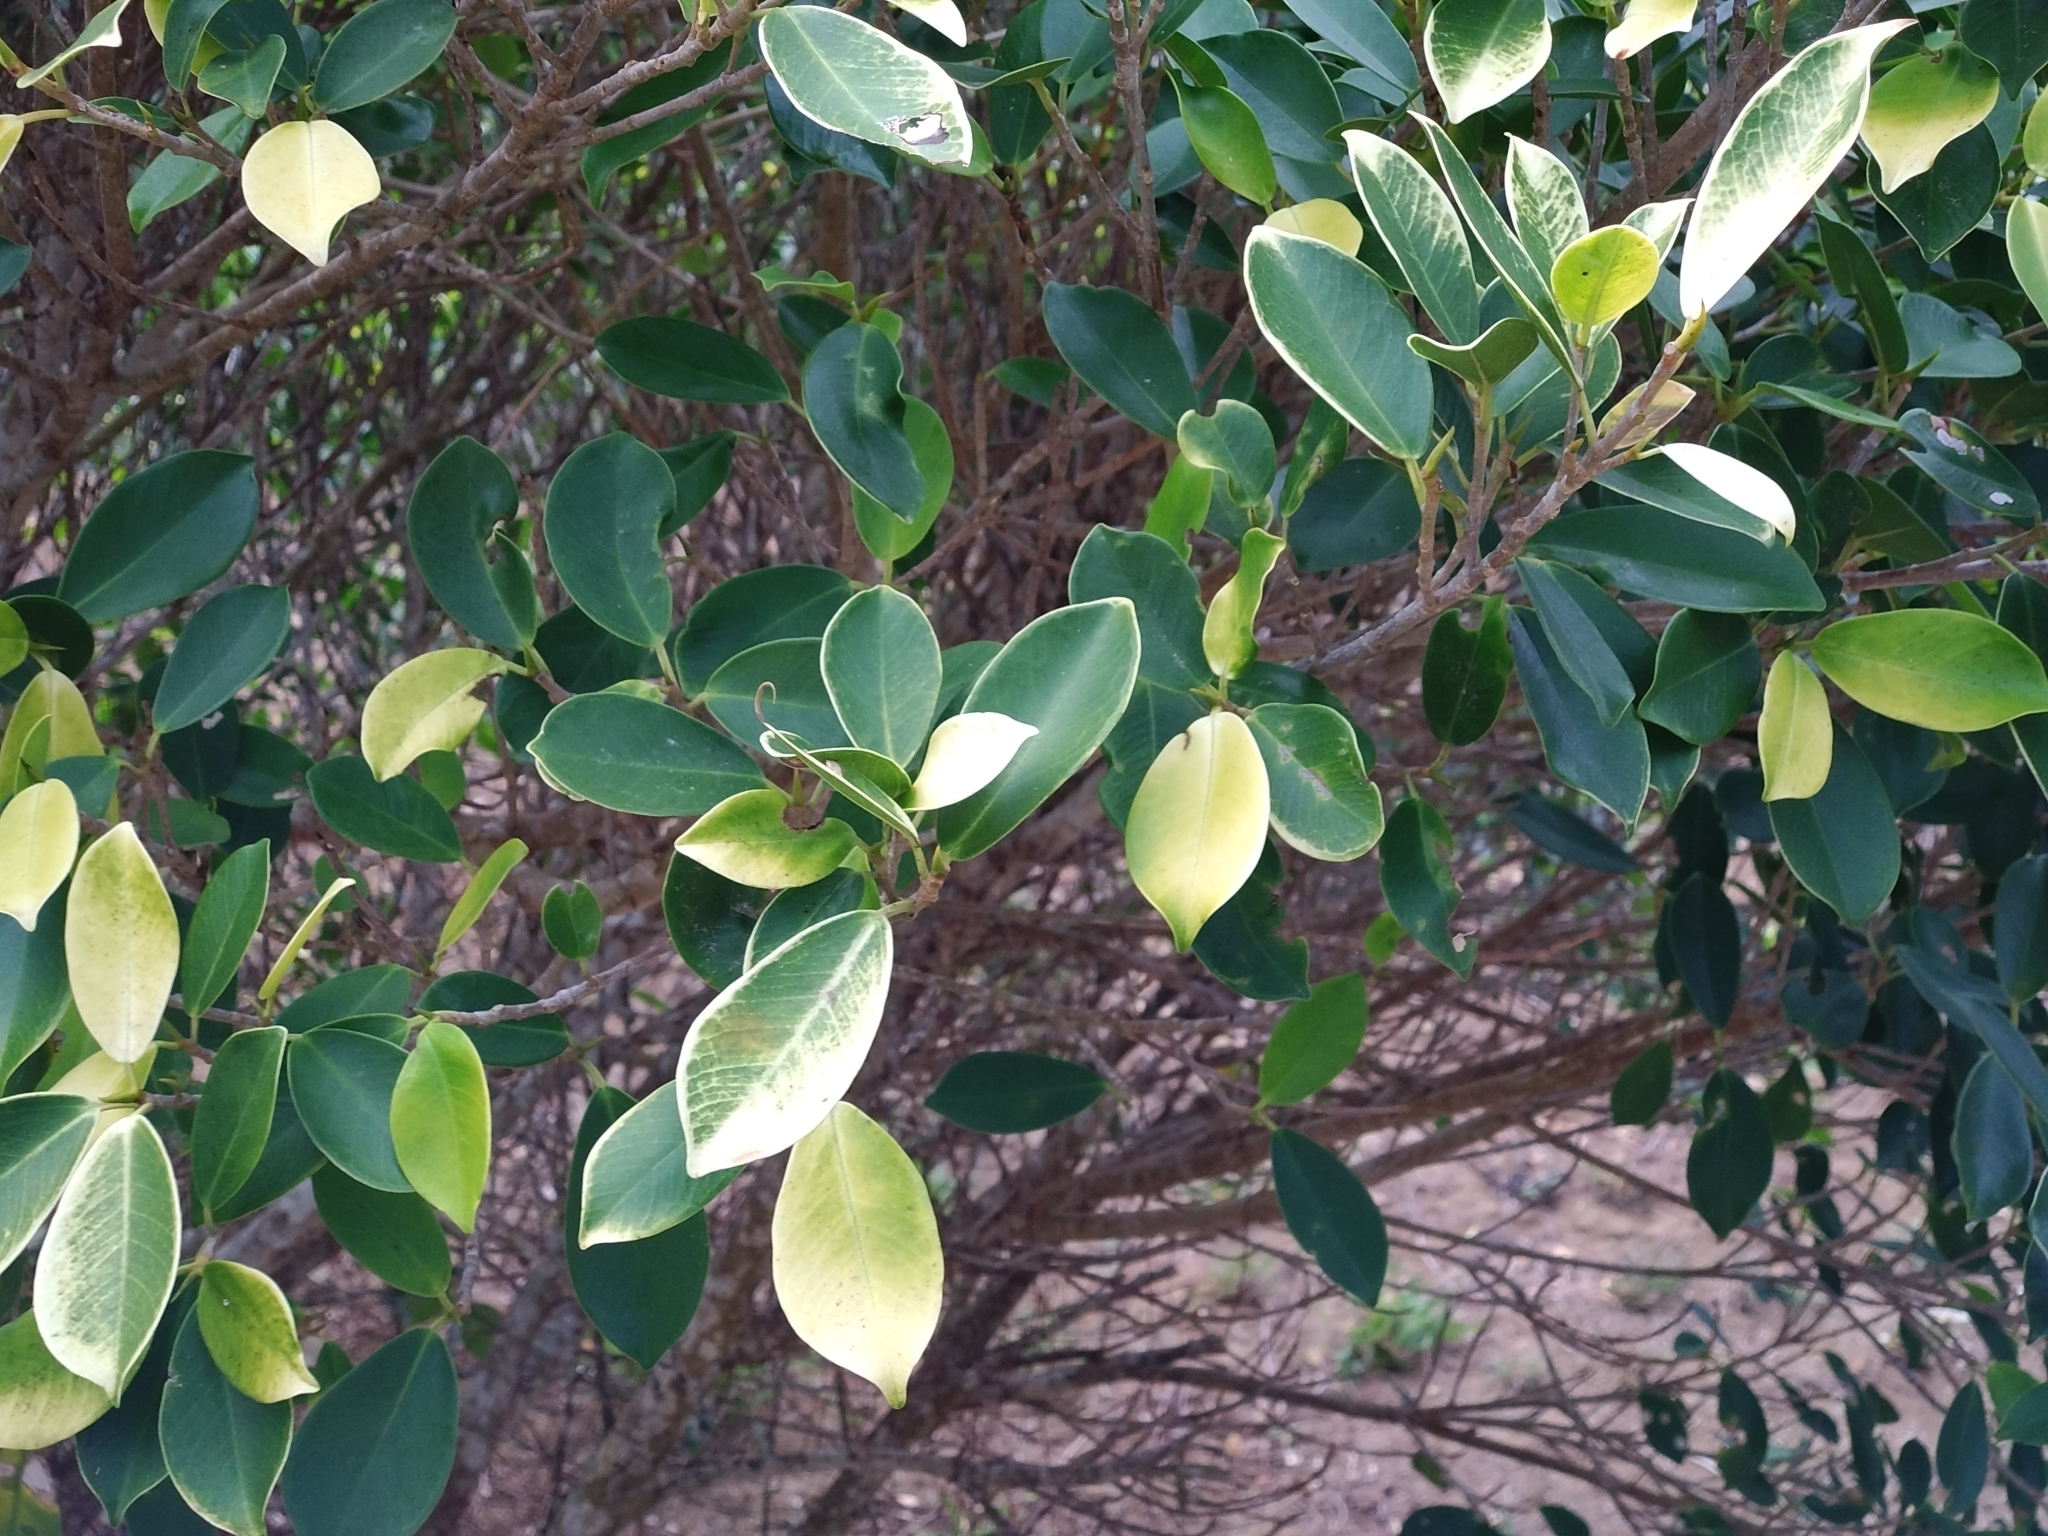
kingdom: Plantae
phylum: Tracheophyta
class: Magnoliopsida
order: Rosales
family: Moraceae
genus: Ficus
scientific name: Ficus microcarpa
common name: Chinese banyan
